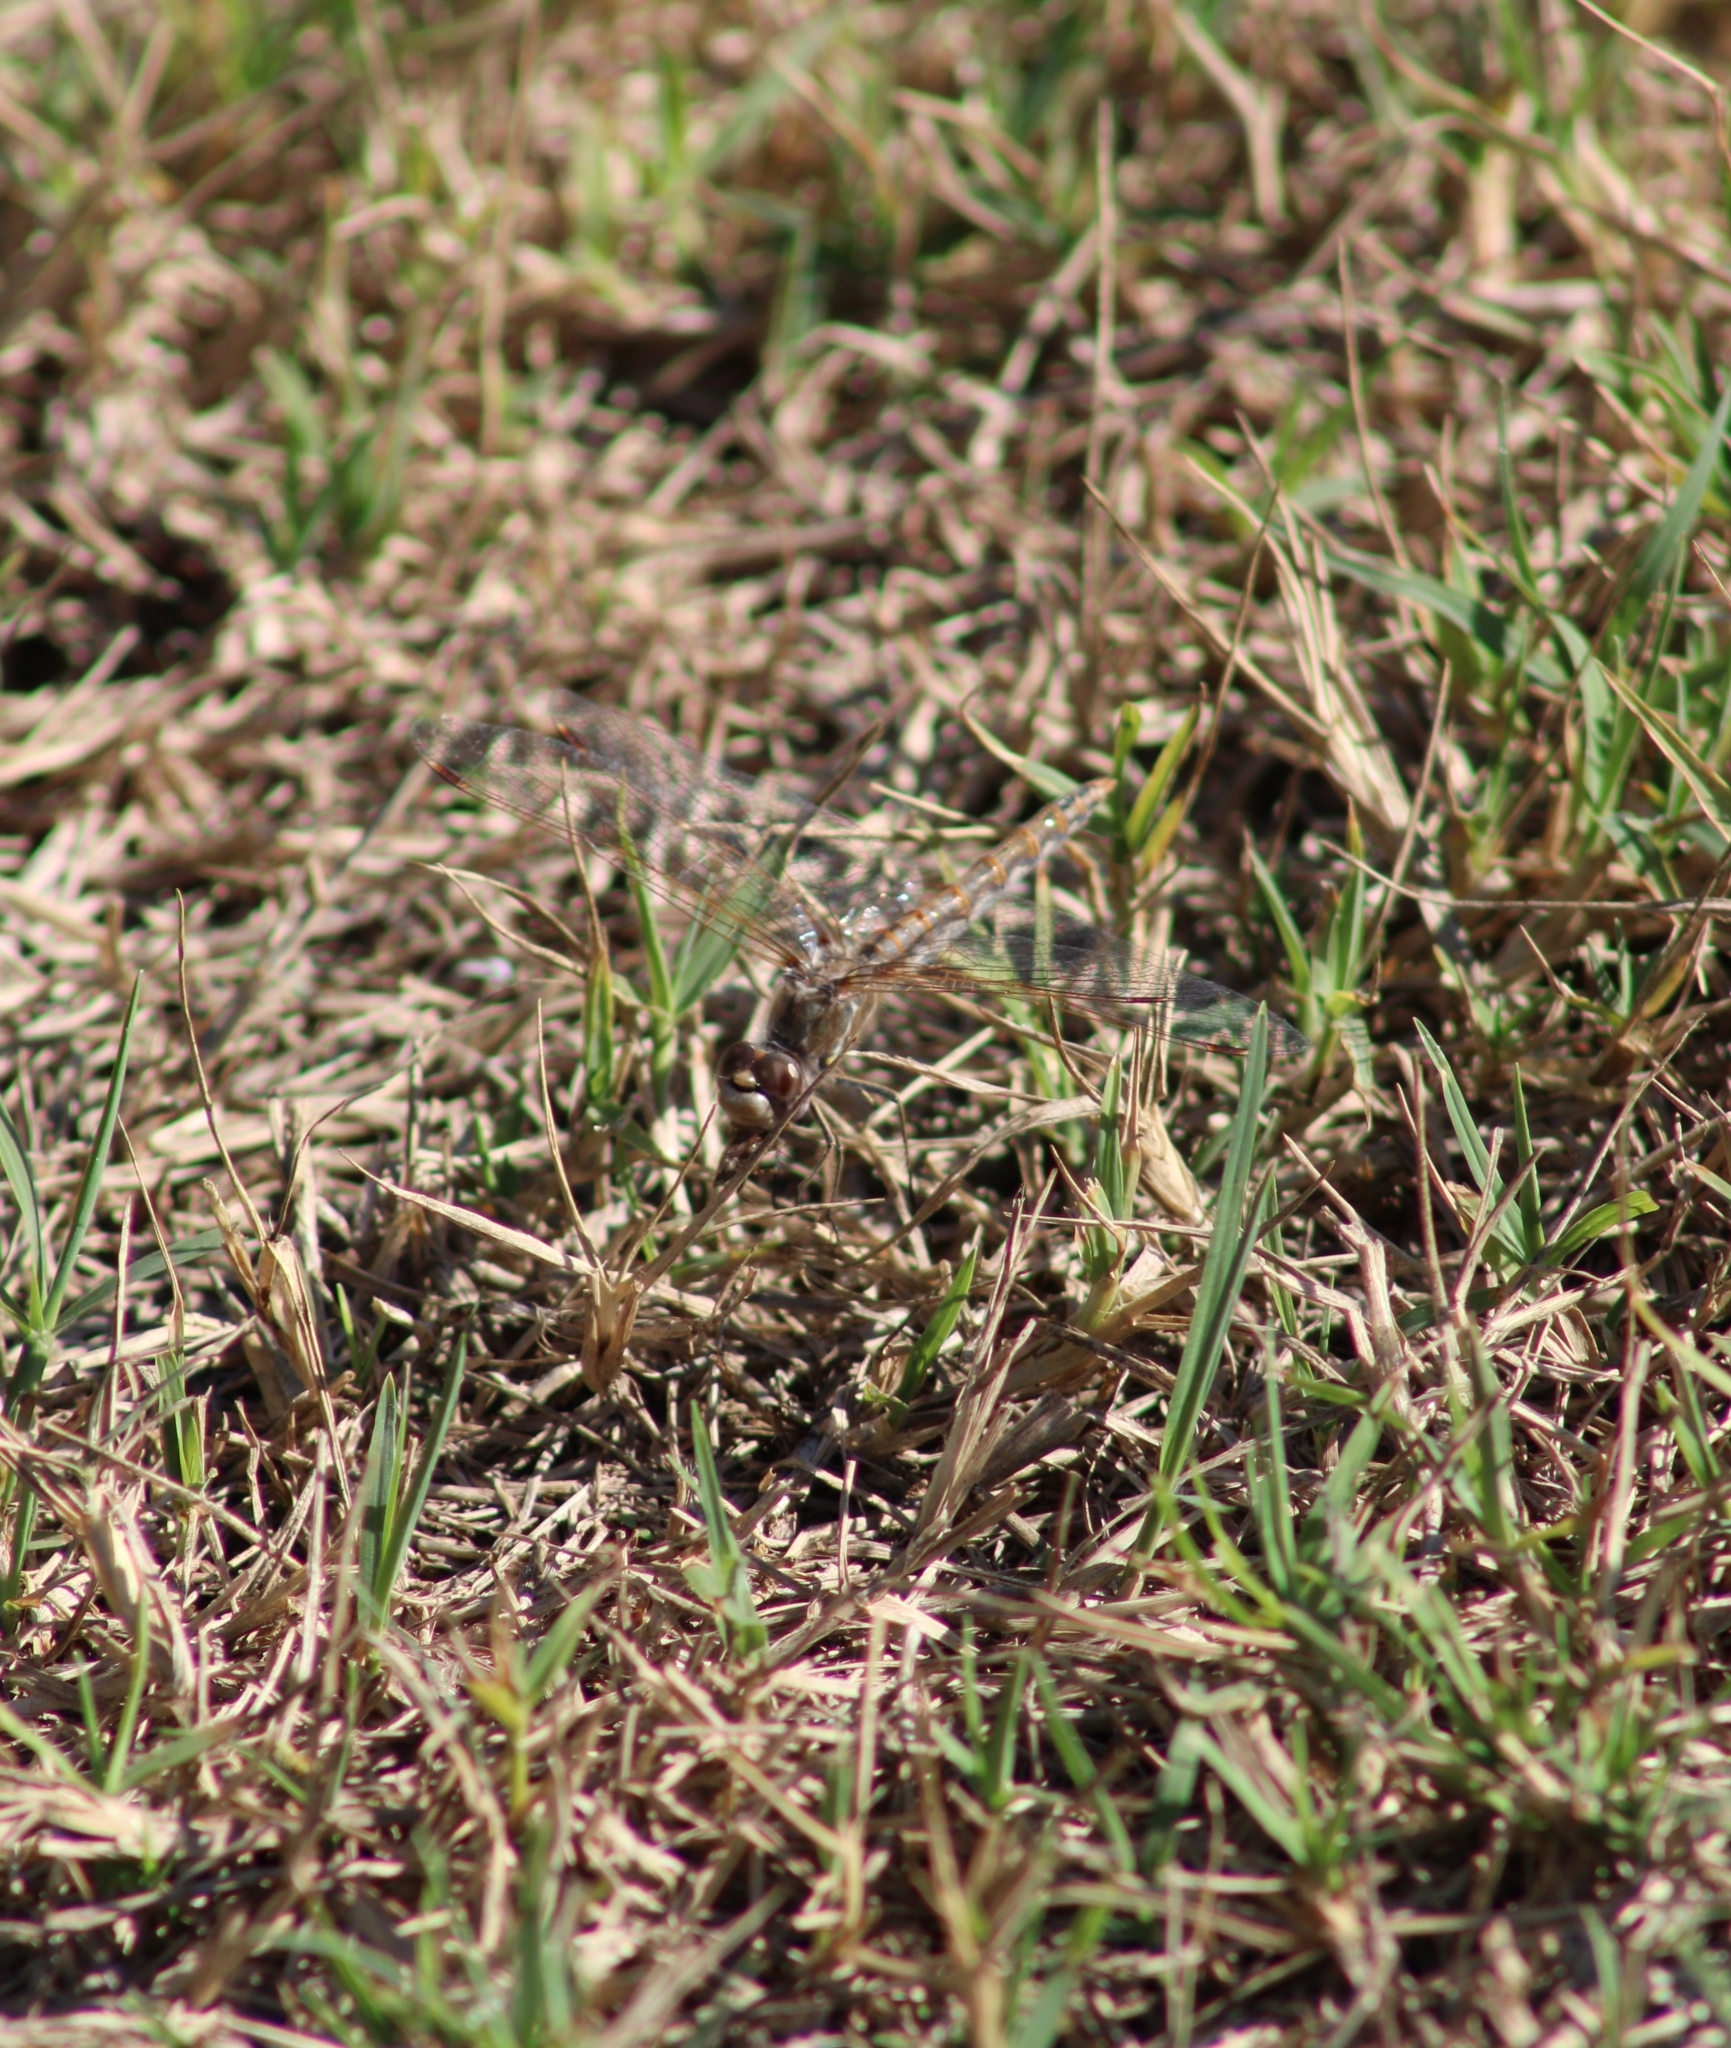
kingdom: Animalia
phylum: Arthropoda
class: Insecta
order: Odonata
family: Libellulidae
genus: Sympetrum
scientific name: Sympetrum corruptum
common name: Variegated meadowhawk
